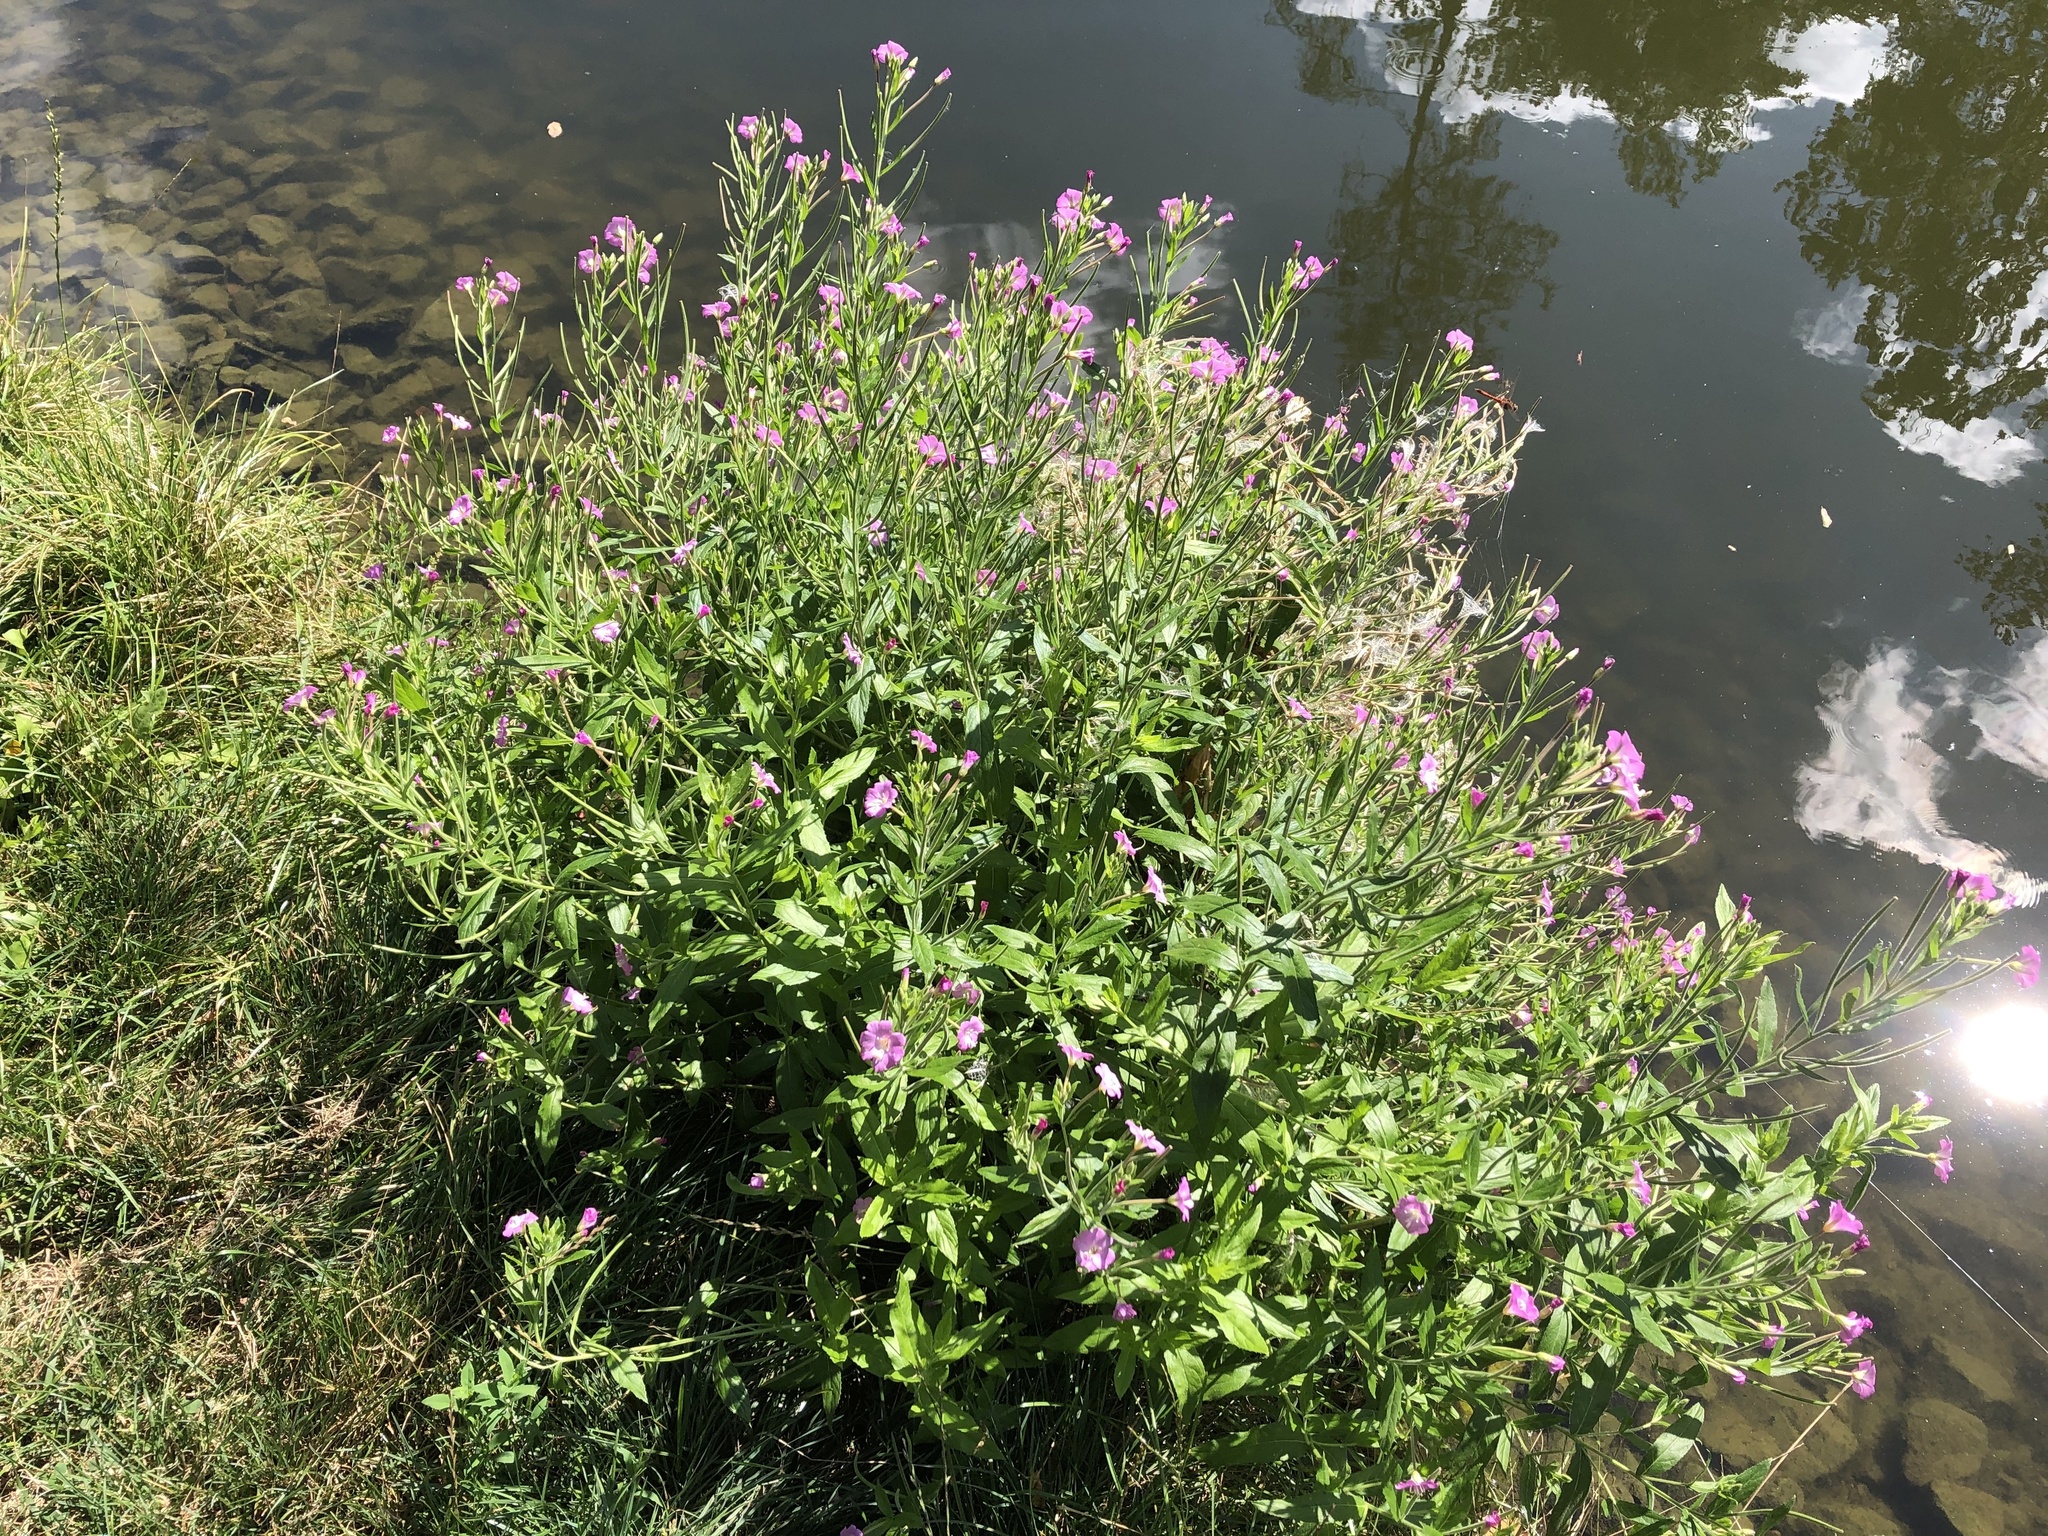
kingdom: Plantae
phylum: Tracheophyta
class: Magnoliopsida
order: Myrtales
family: Onagraceae
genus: Epilobium
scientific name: Epilobium hirsutum
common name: Great willowherb
